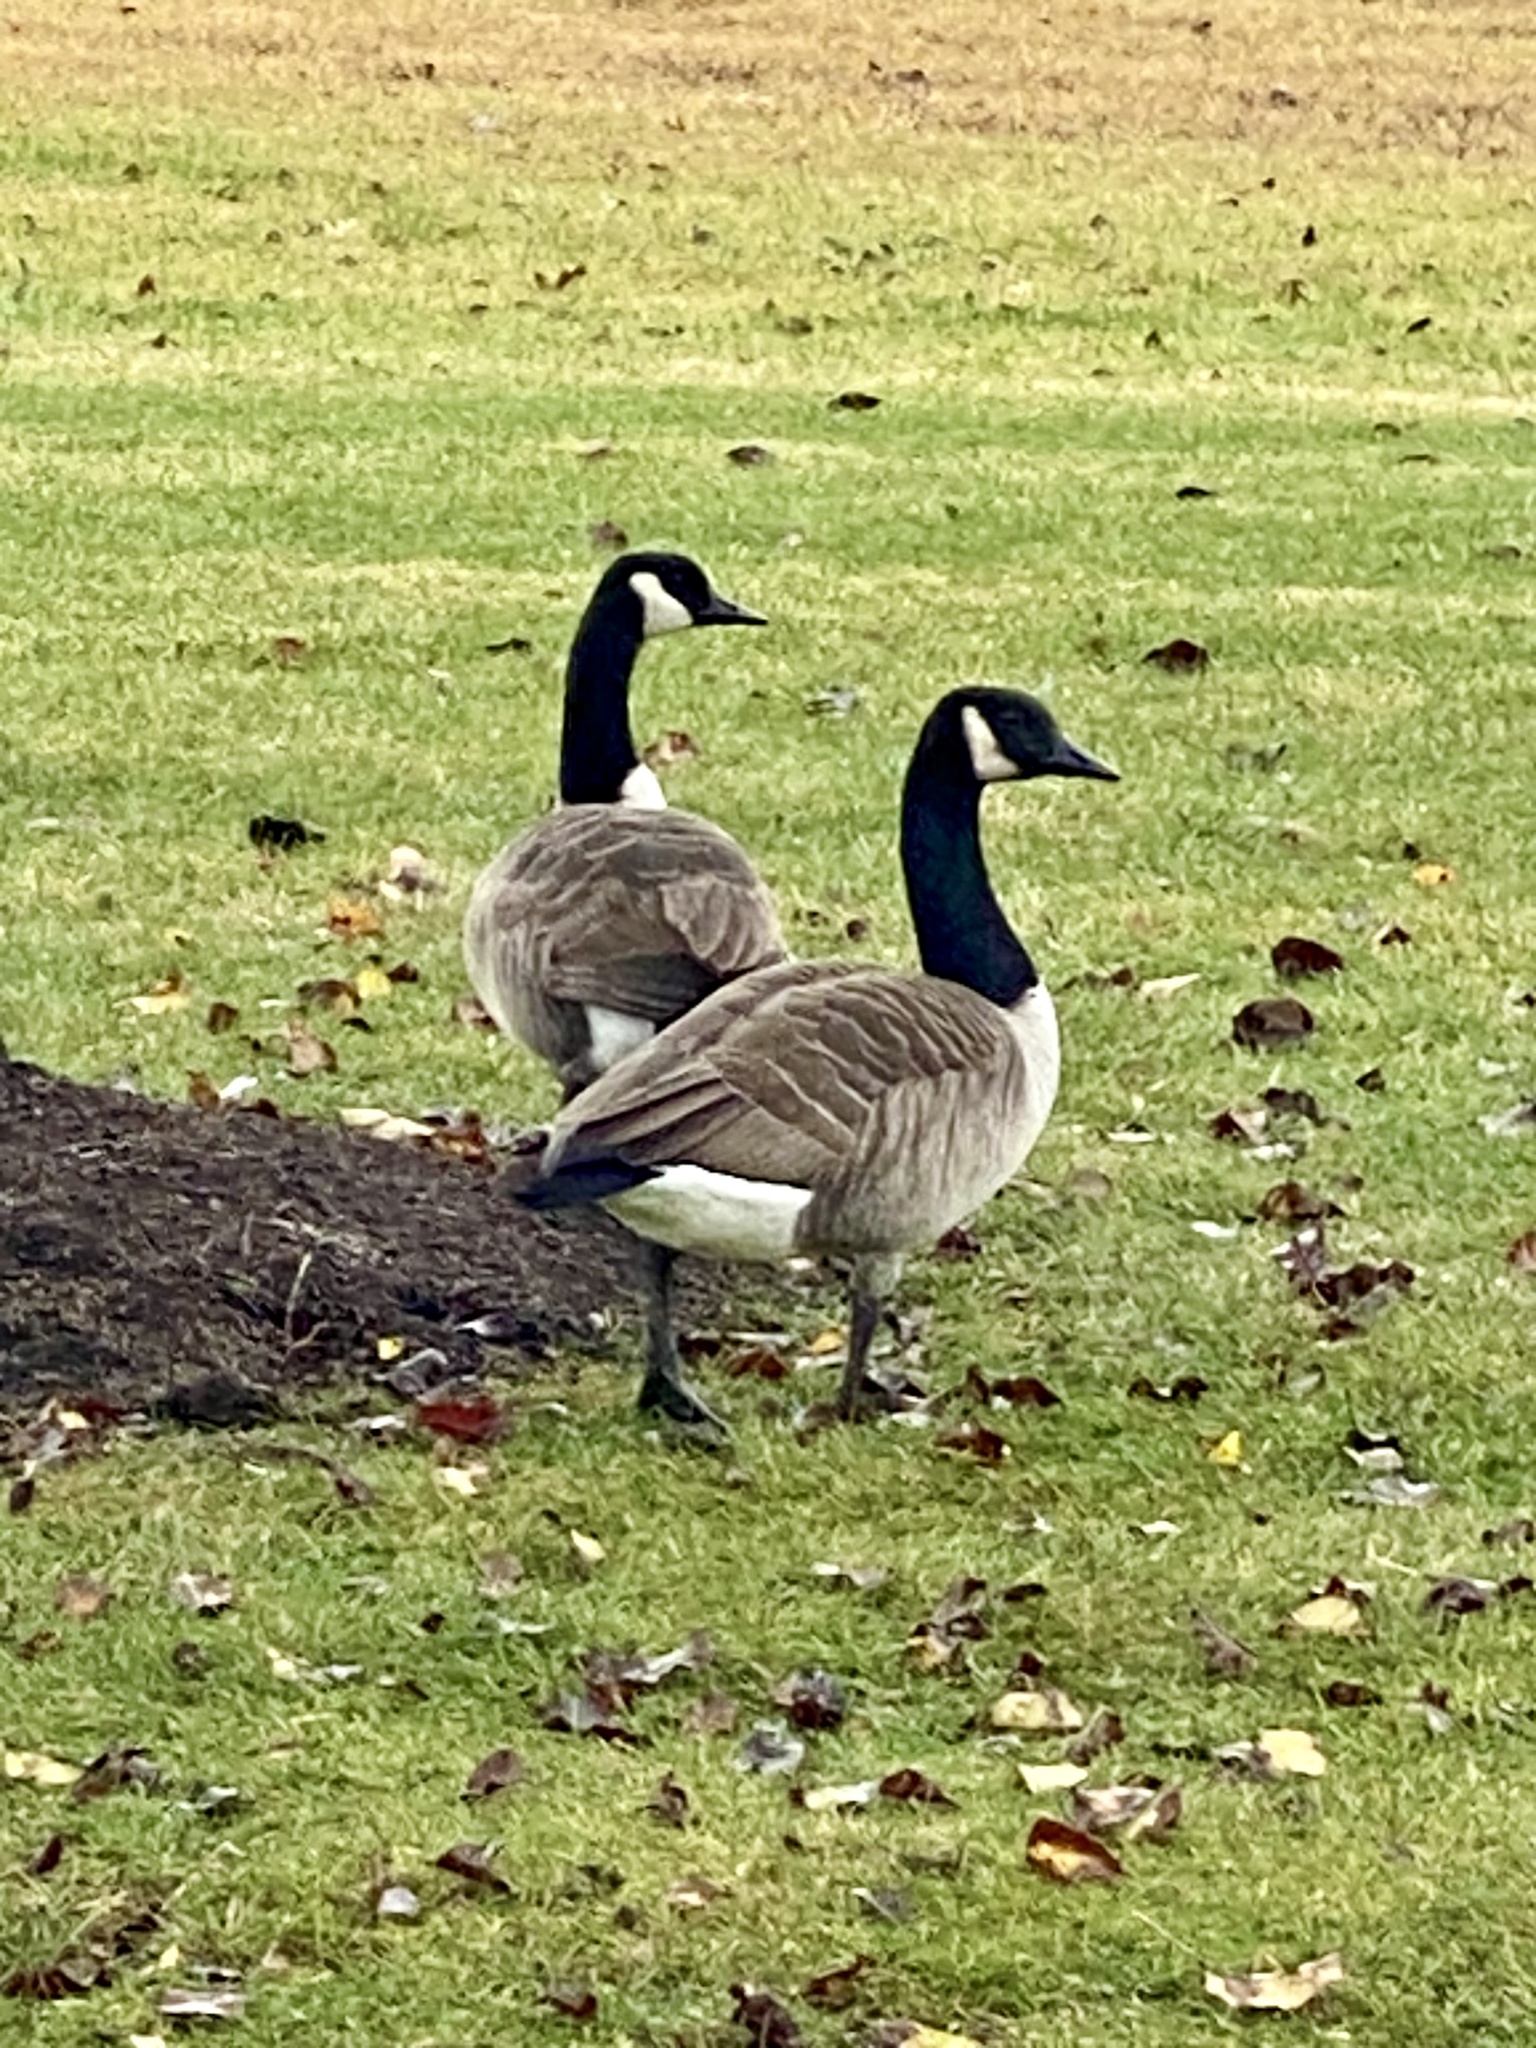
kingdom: Animalia
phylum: Chordata
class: Aves
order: Anseriformes
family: Anatidae
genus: Branta
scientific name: Branta canadensis
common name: Canada goose
